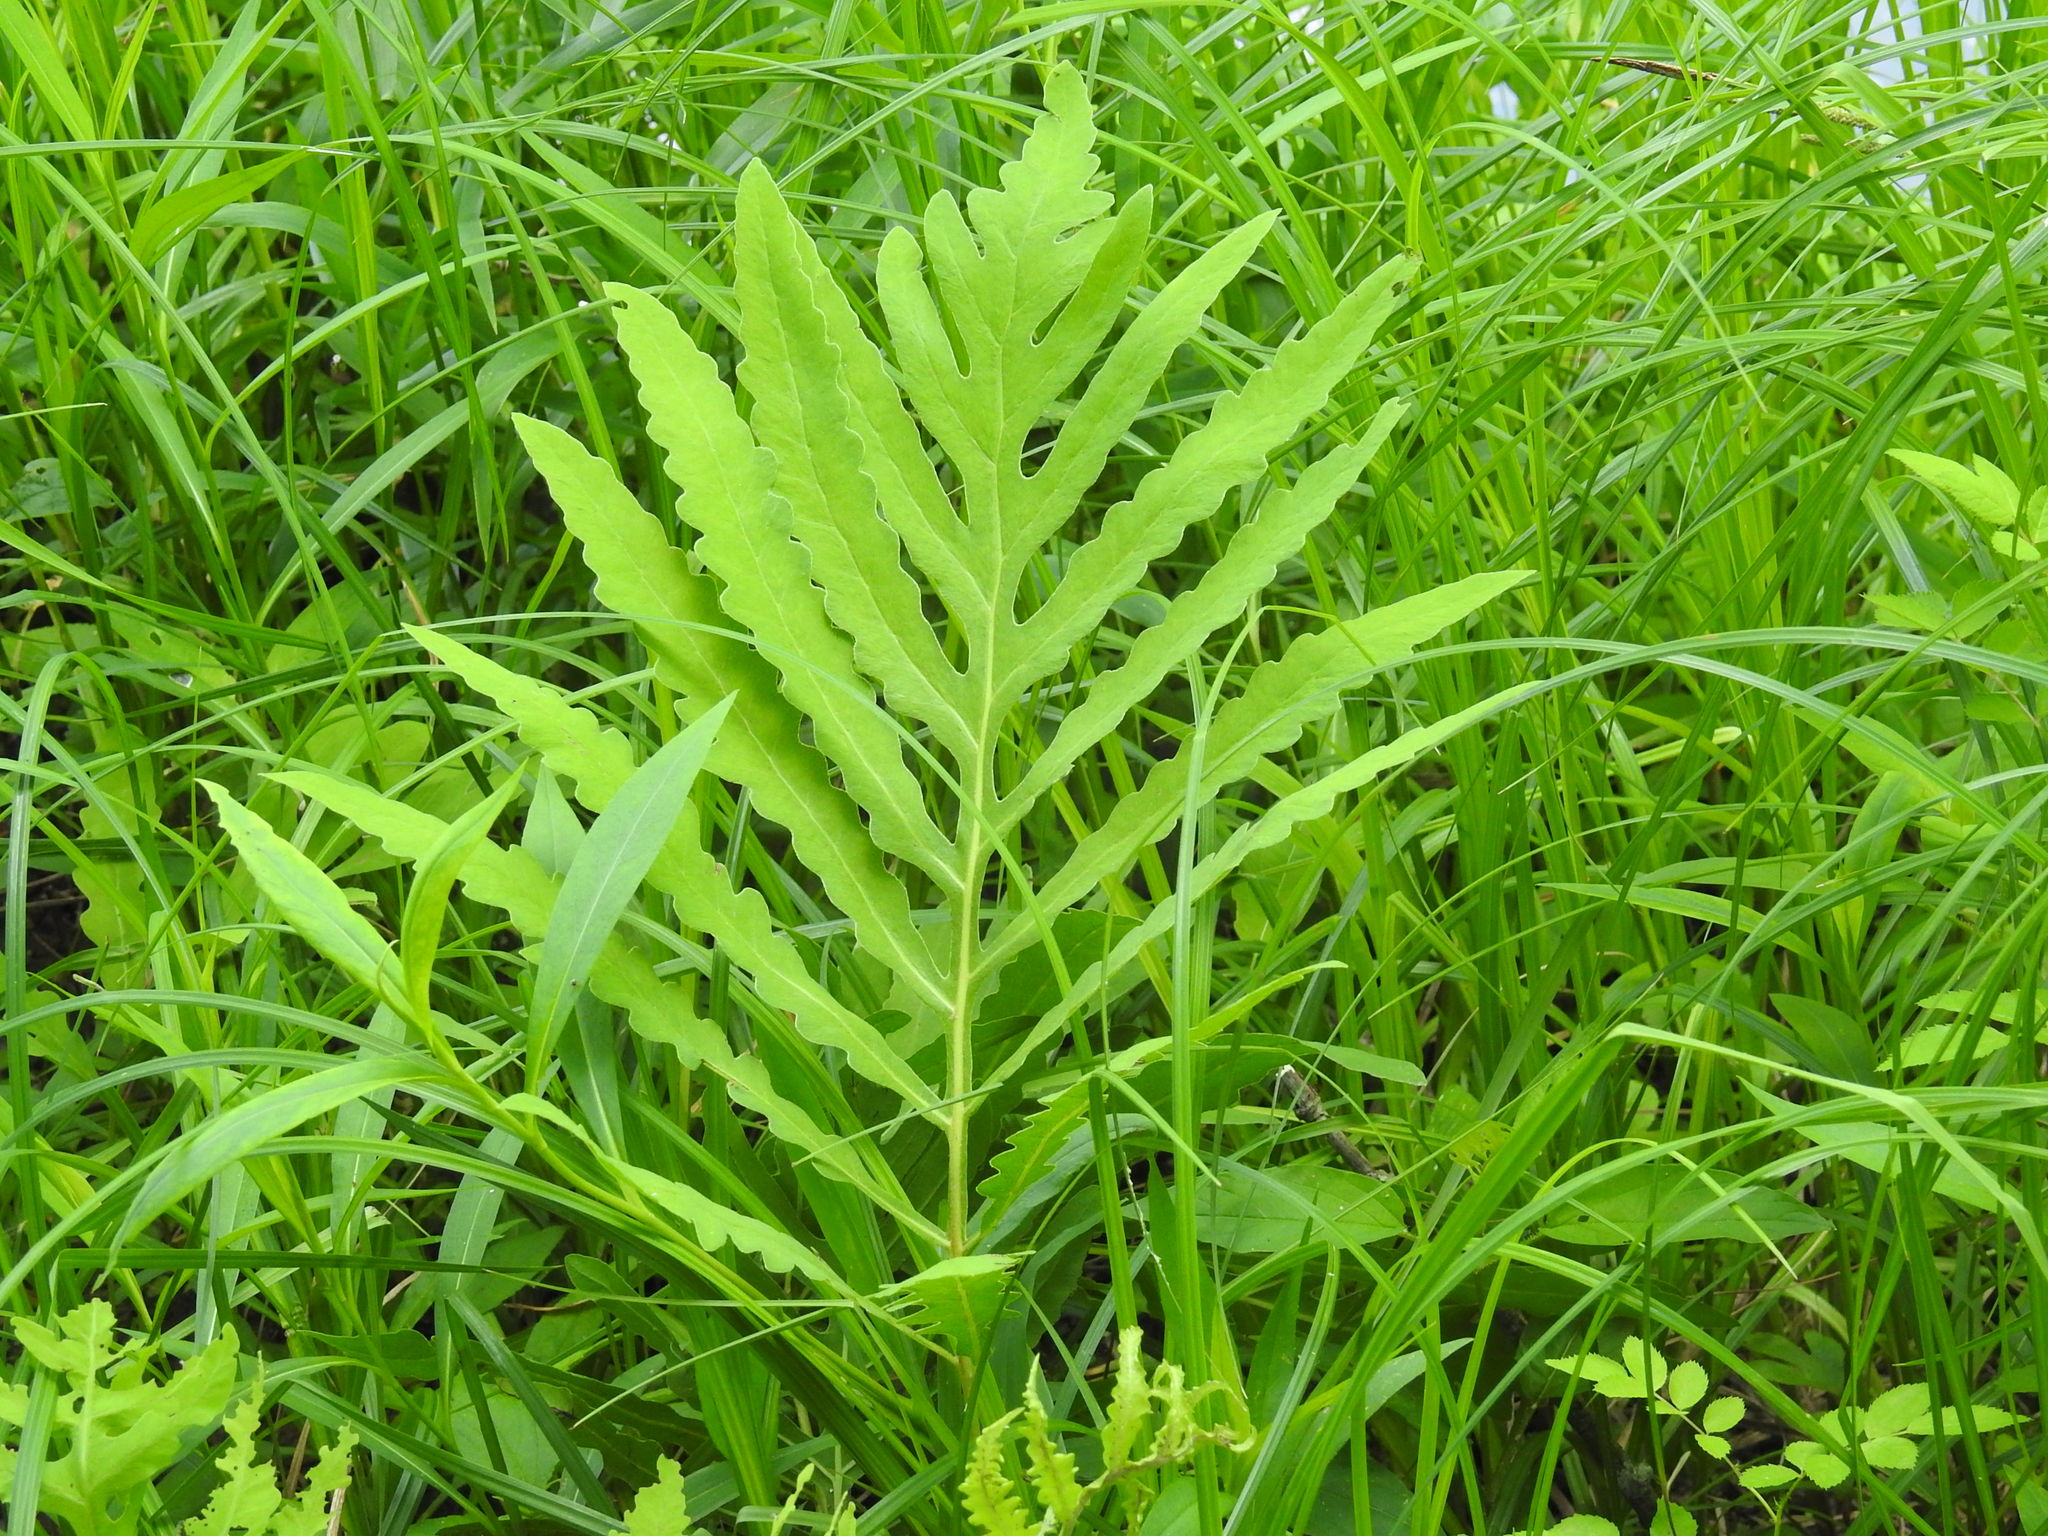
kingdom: Plantae
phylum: Tracheophyta
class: Polypodiopsida
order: Polypodiales
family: Onocleaceae
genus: Onoclea
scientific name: Onoclea sensibilis
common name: Sensitive fern
